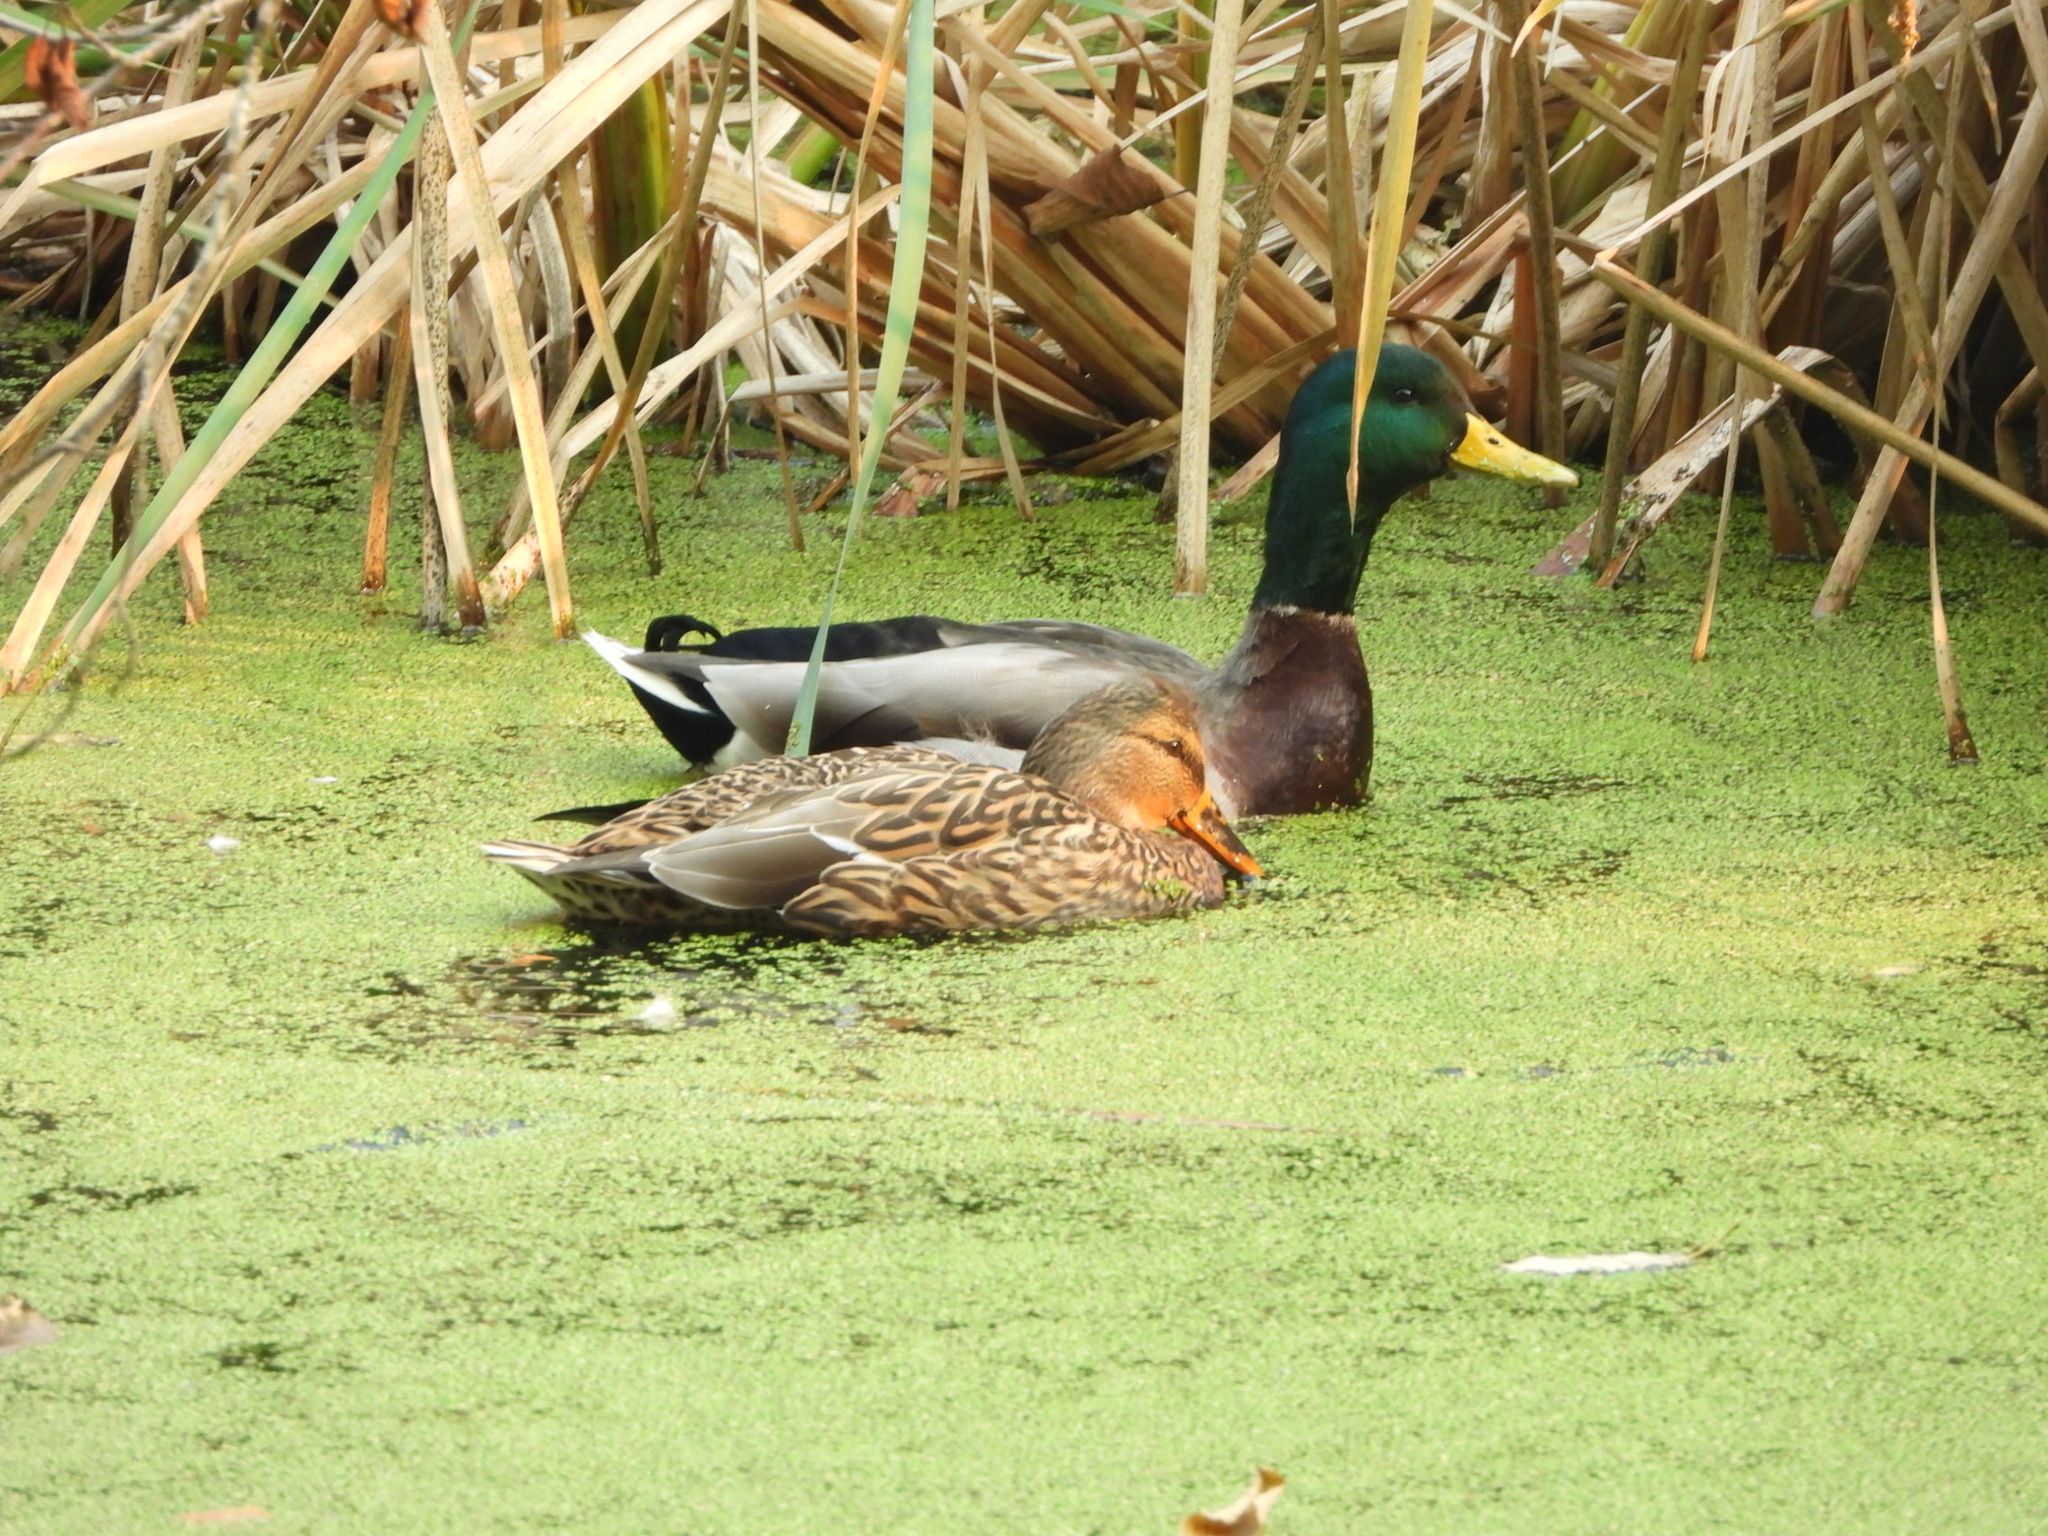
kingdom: Animalia
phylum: Chordata
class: Aves
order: Anseriformes
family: Anatidae
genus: Anas
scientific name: Anas platyrhynchos
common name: Mallard
